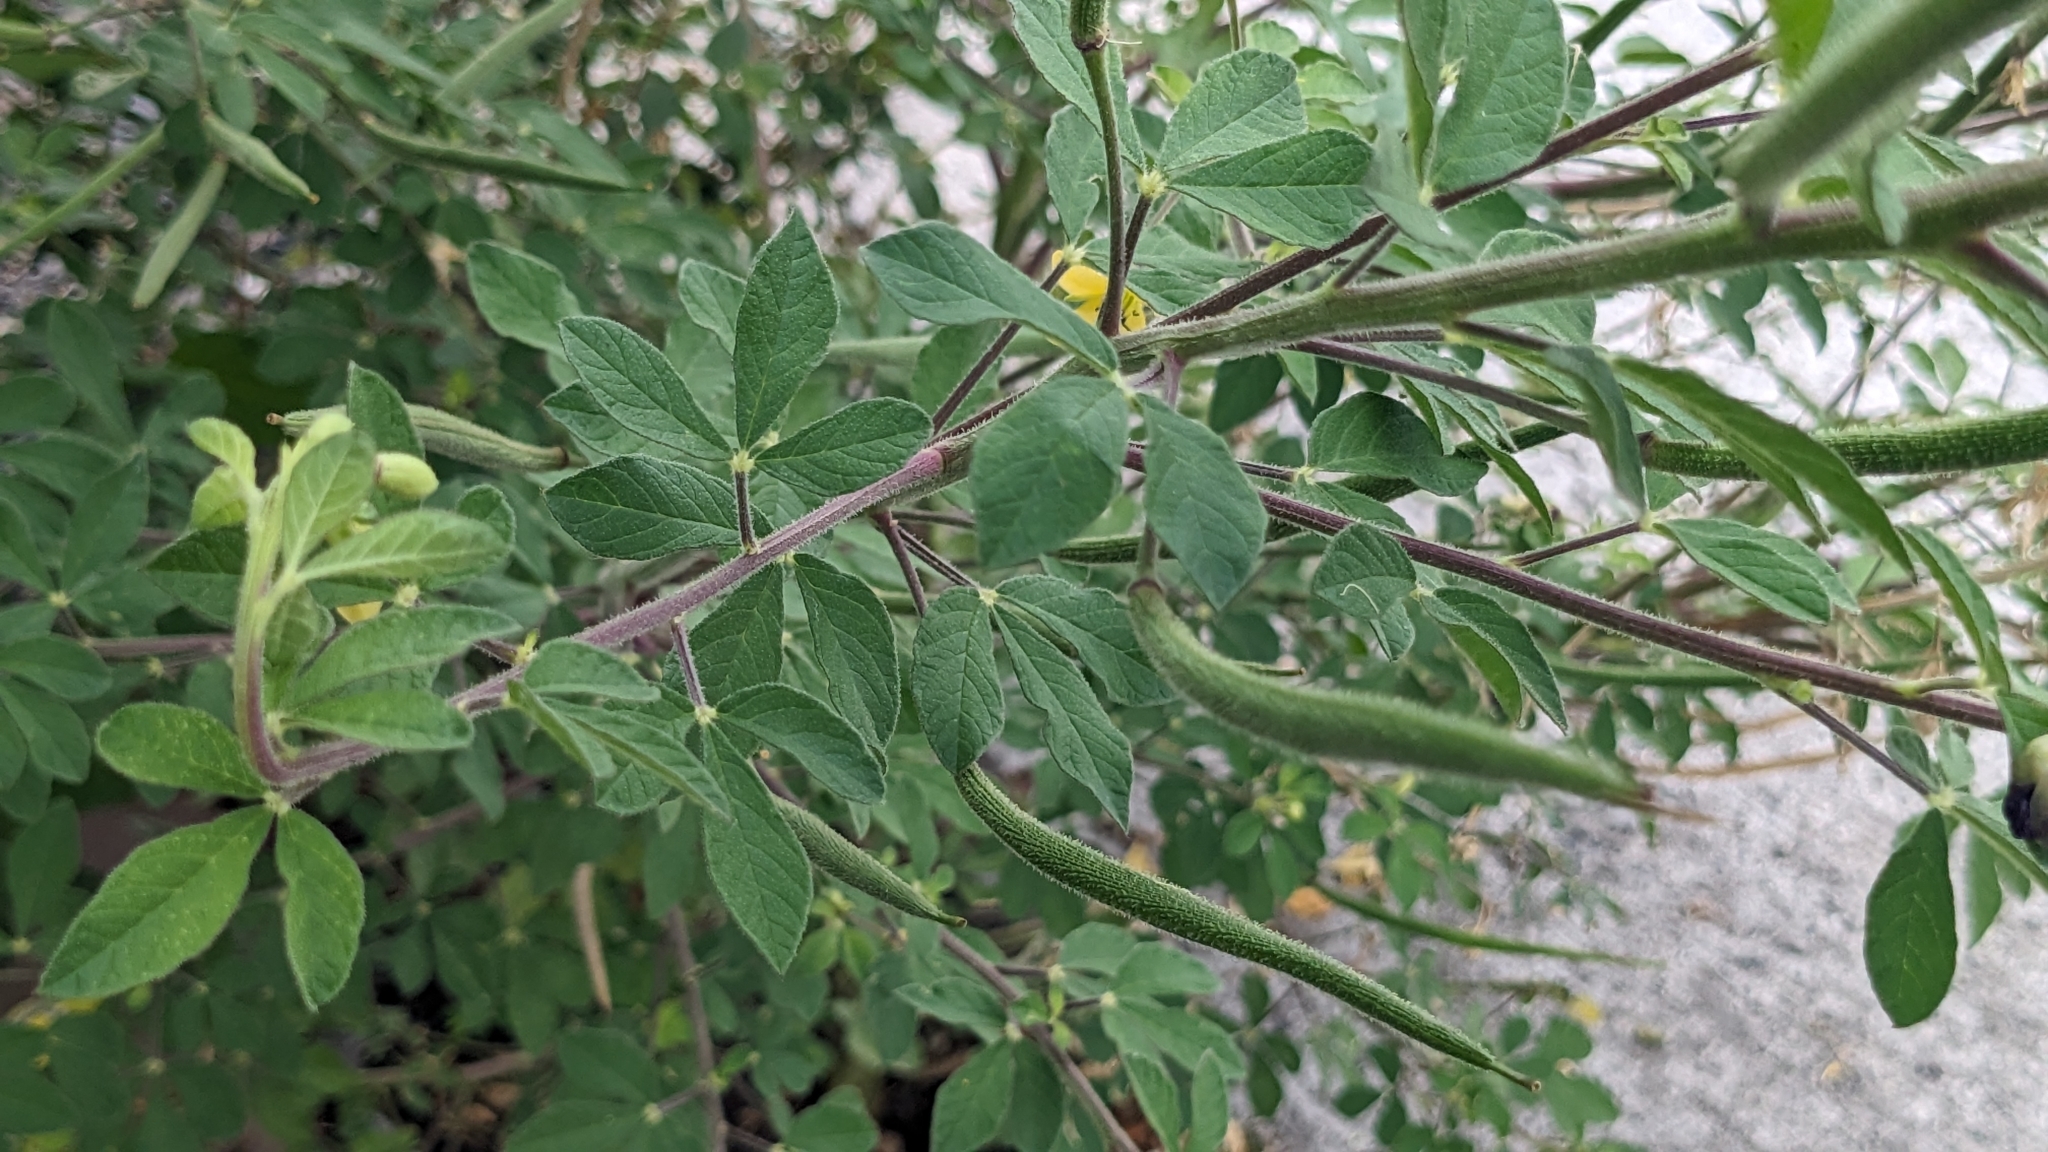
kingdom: Plantae
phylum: Tracheophyta
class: Magnoliopsida
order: Brassicales
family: Cleomaceae
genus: Arivela
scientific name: Arivela viscosa
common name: Asian spiderflower
